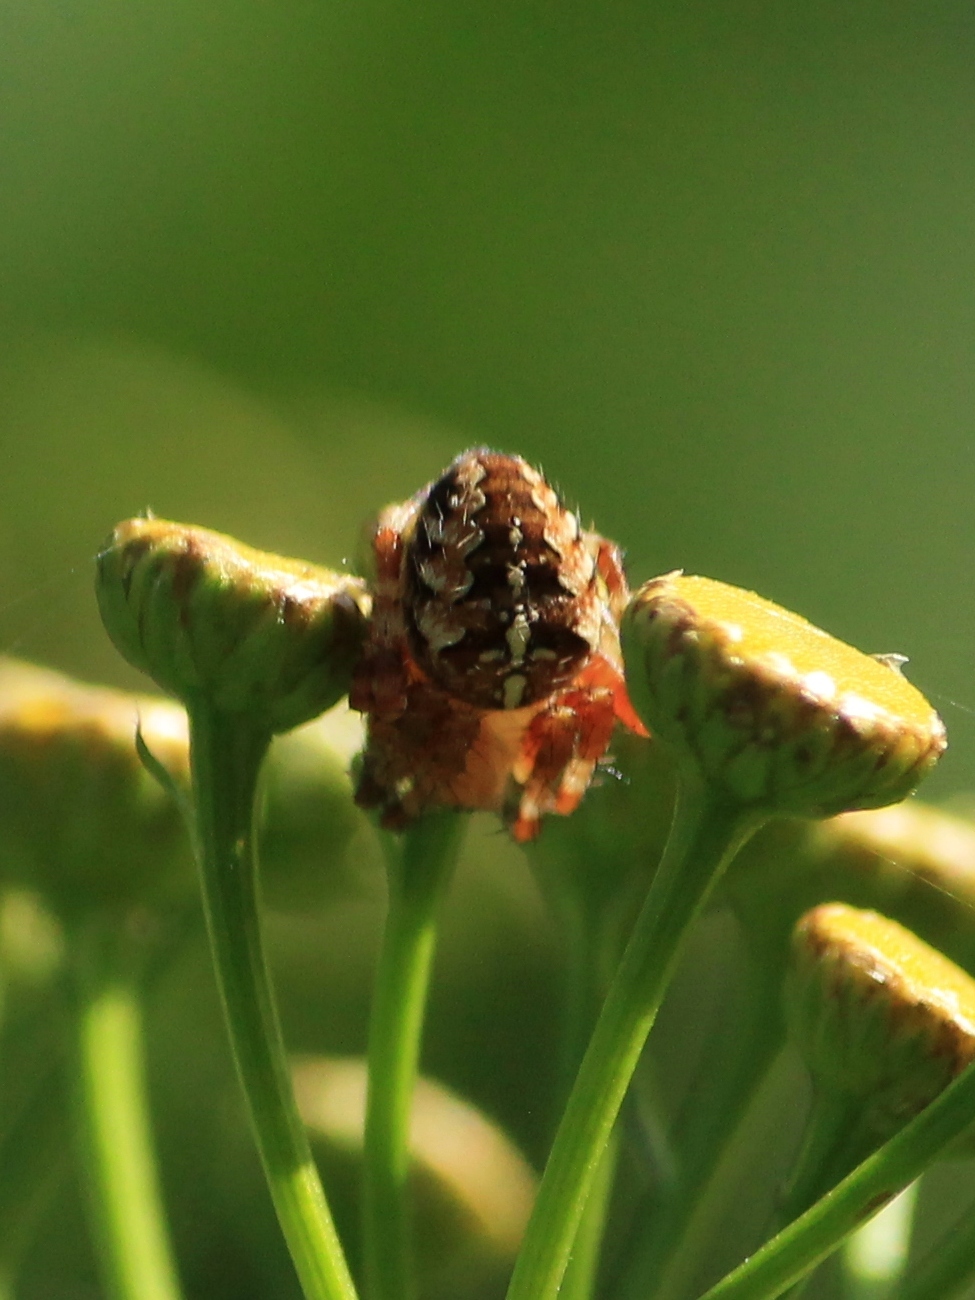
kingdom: Animalia
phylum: Arthropoda
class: Arachnida
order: Araneae
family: Araneidae
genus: Araneus
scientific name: Araneus diadematus
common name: Cross orbweaver
